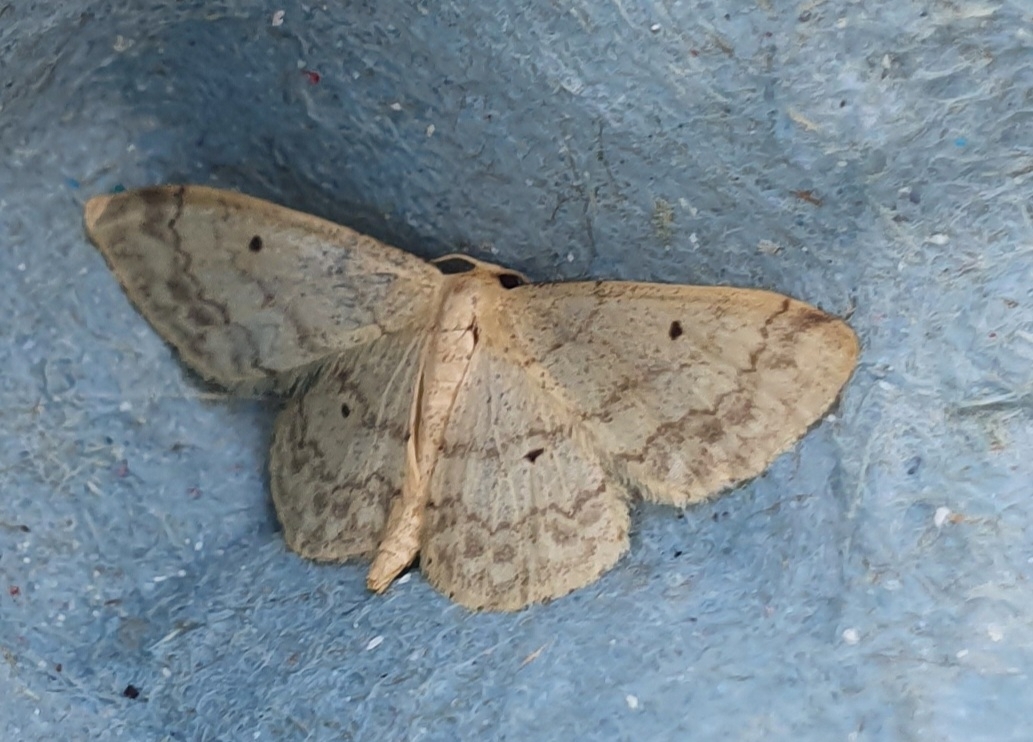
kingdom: Animalia
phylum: Arthropoda
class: Insecta
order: Lepidoptera
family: Geometridae
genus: Idaea
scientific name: Idaea biselata
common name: Small fan-footed wave
